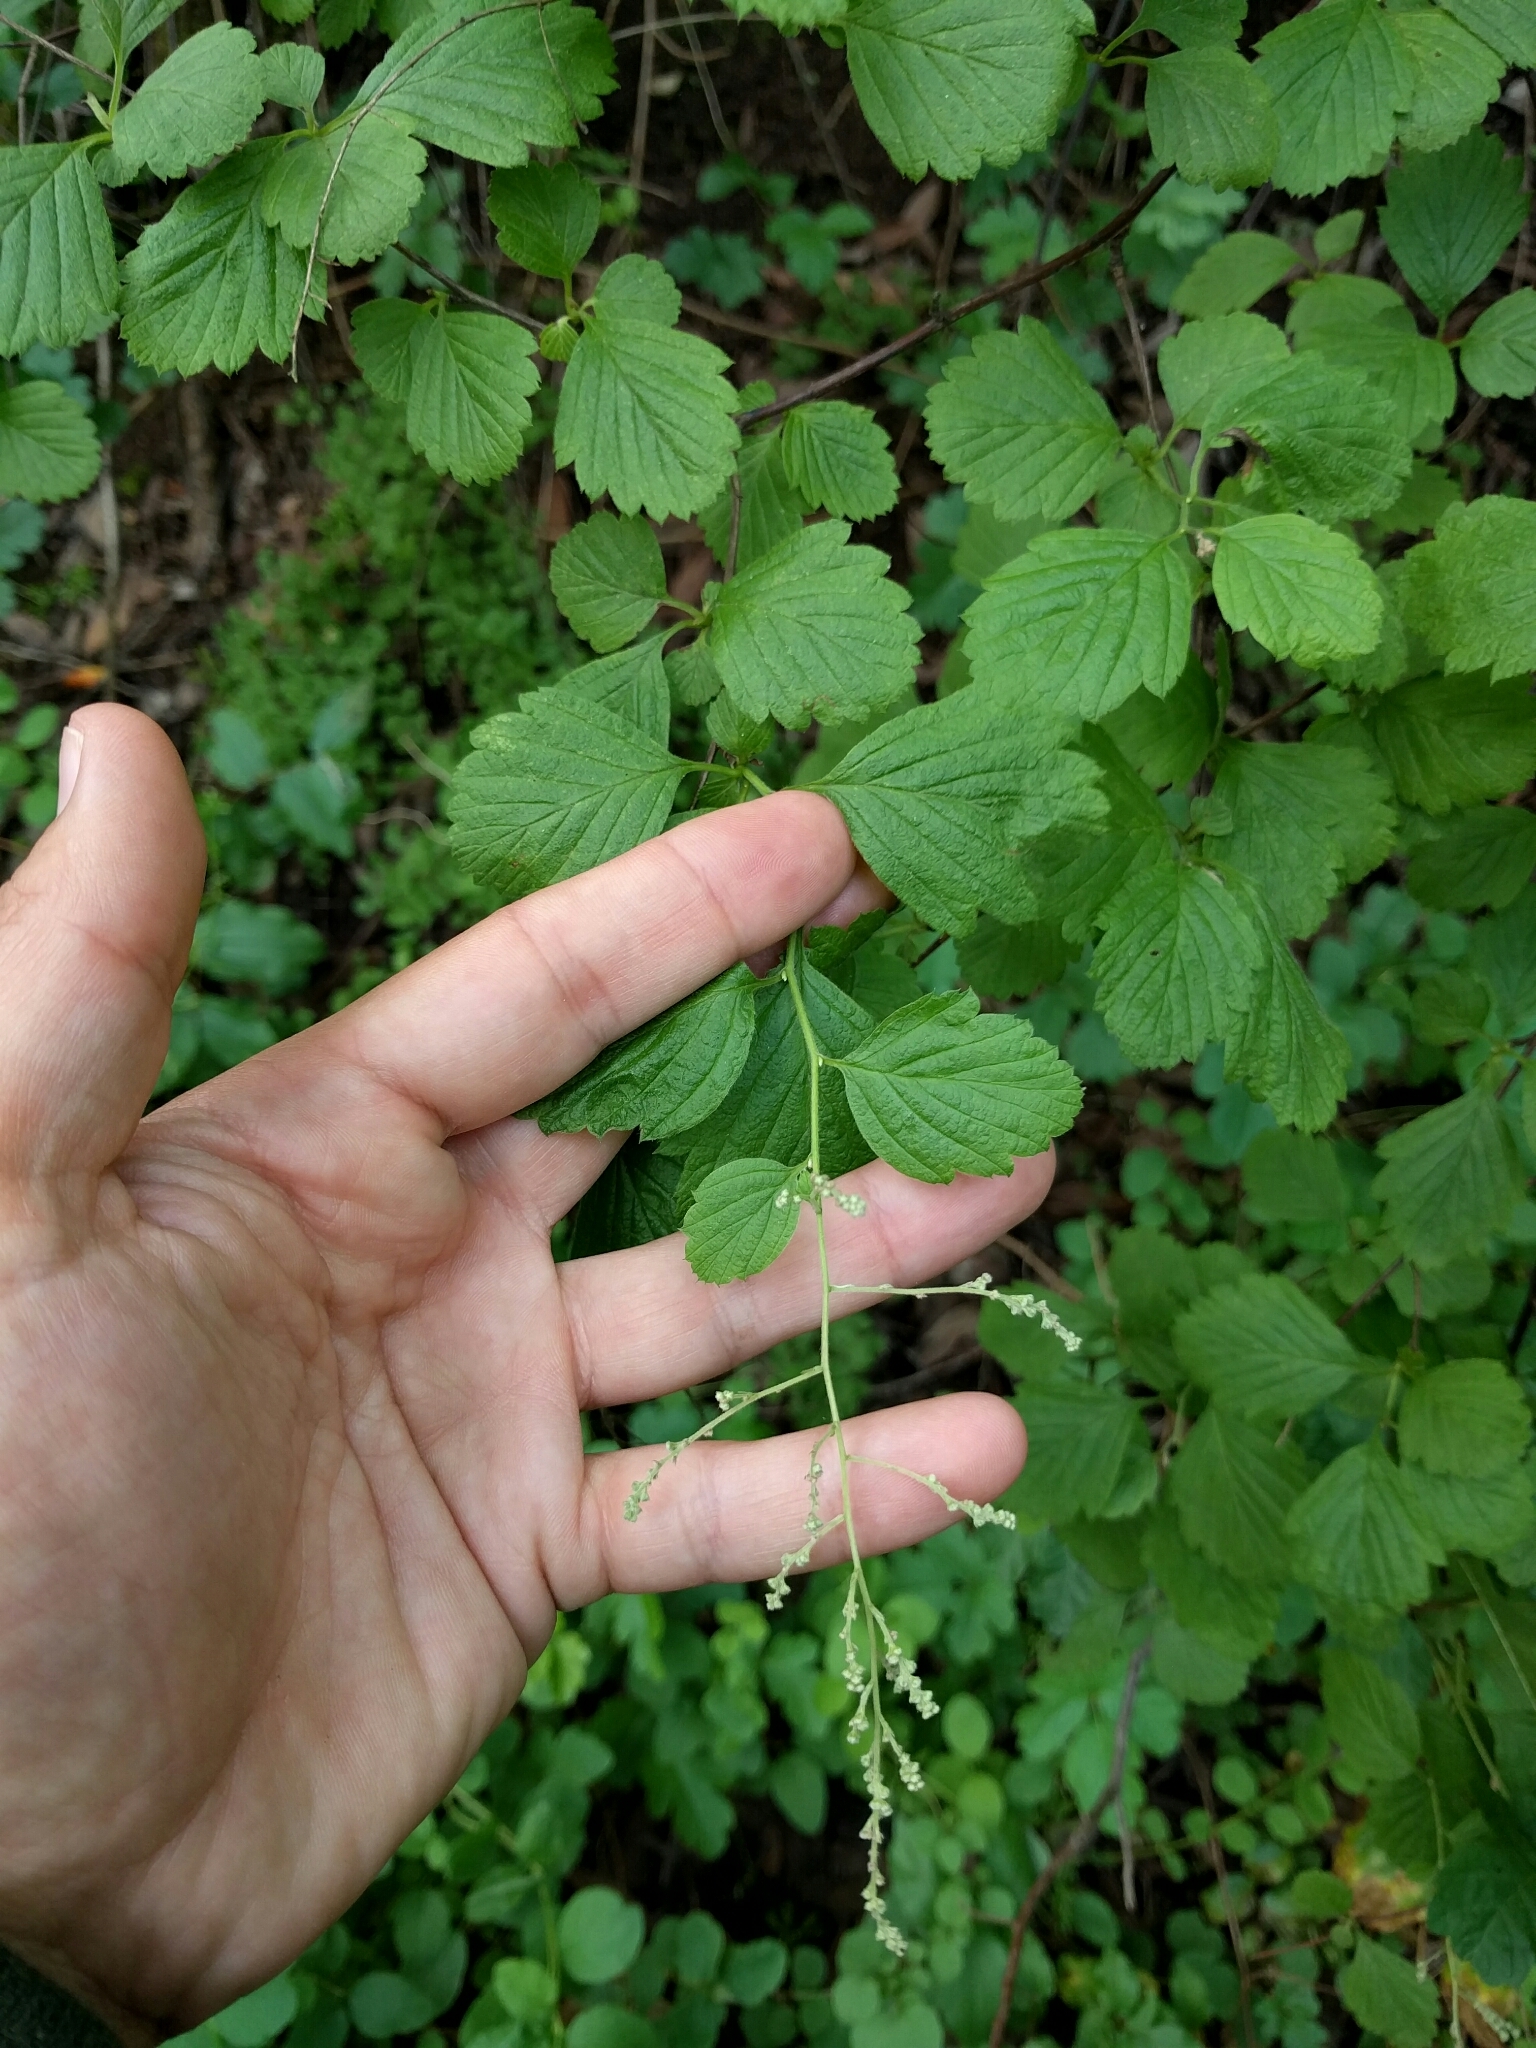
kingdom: Plantae
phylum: Tracheophyta
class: Magnoliopsida
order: Rosales
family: Rosaceae
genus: Holodiscus
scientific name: Holodiscus discolor
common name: Oceanspray
